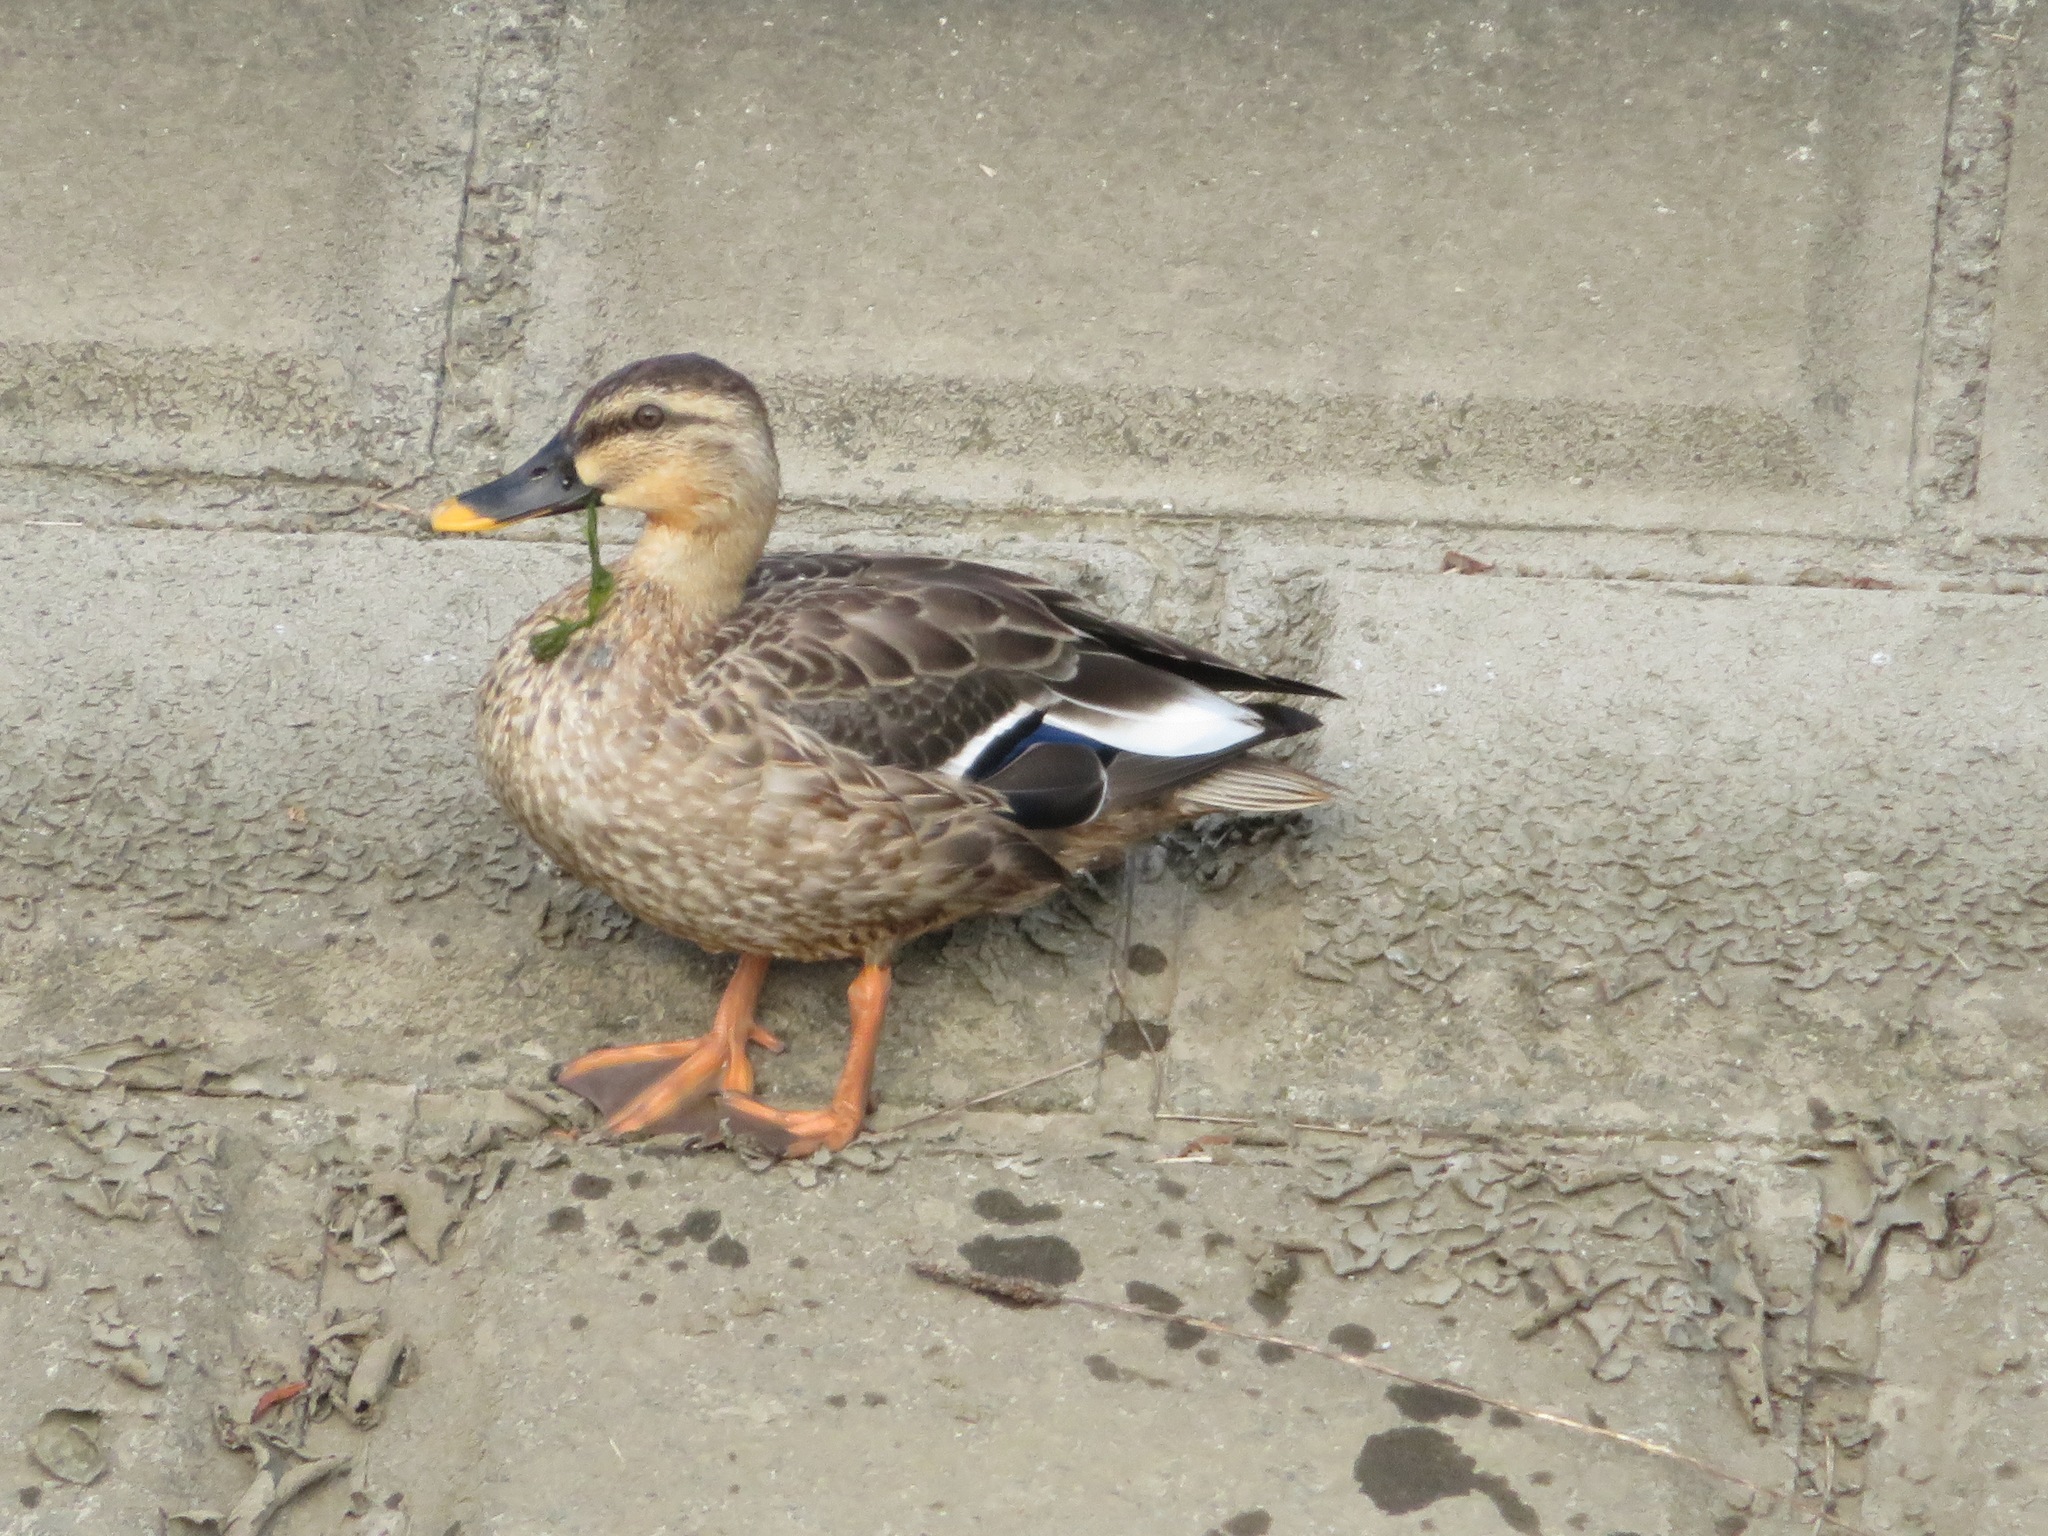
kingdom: Animalia
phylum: Chordata
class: Aves
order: Anseriformes
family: Anatidae
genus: Anas
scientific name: Anas zonorhyncha
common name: Eastern spot-billed duck
